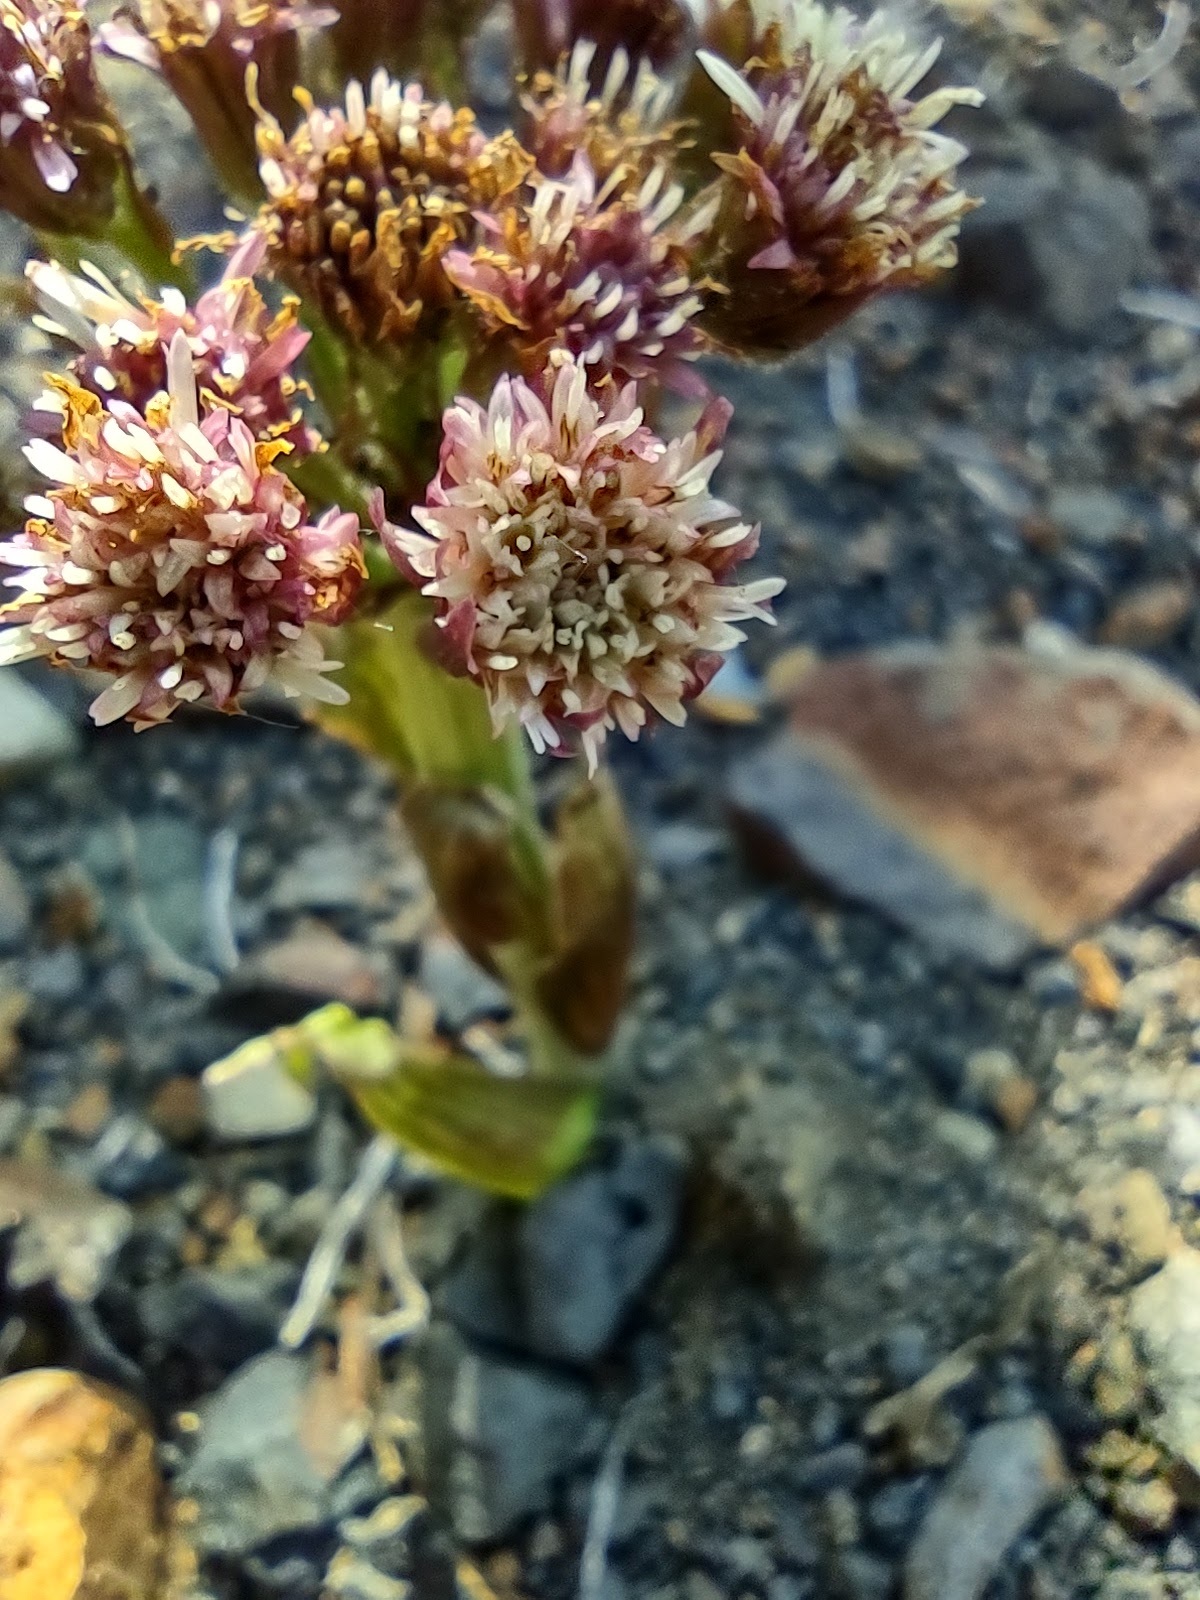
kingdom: Plantae
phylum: Tracheophyta
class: Magnoliopsida
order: Asterales
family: Asteraceae
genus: Petasites
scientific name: Petasites frigidus
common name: Arctic butterbur
